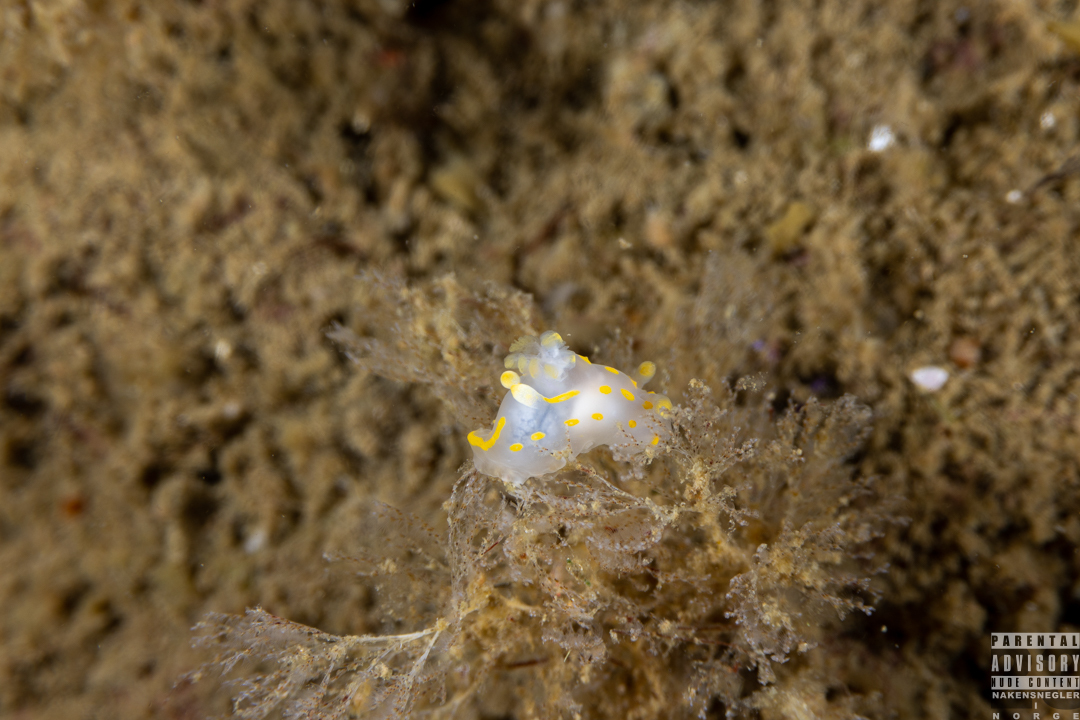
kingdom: Animalia
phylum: Mollusca
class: Gastropoda
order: Nudibranchia
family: Polyceridae
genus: Polycera
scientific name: Polycera quadrilineata
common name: Four-striped polycera
